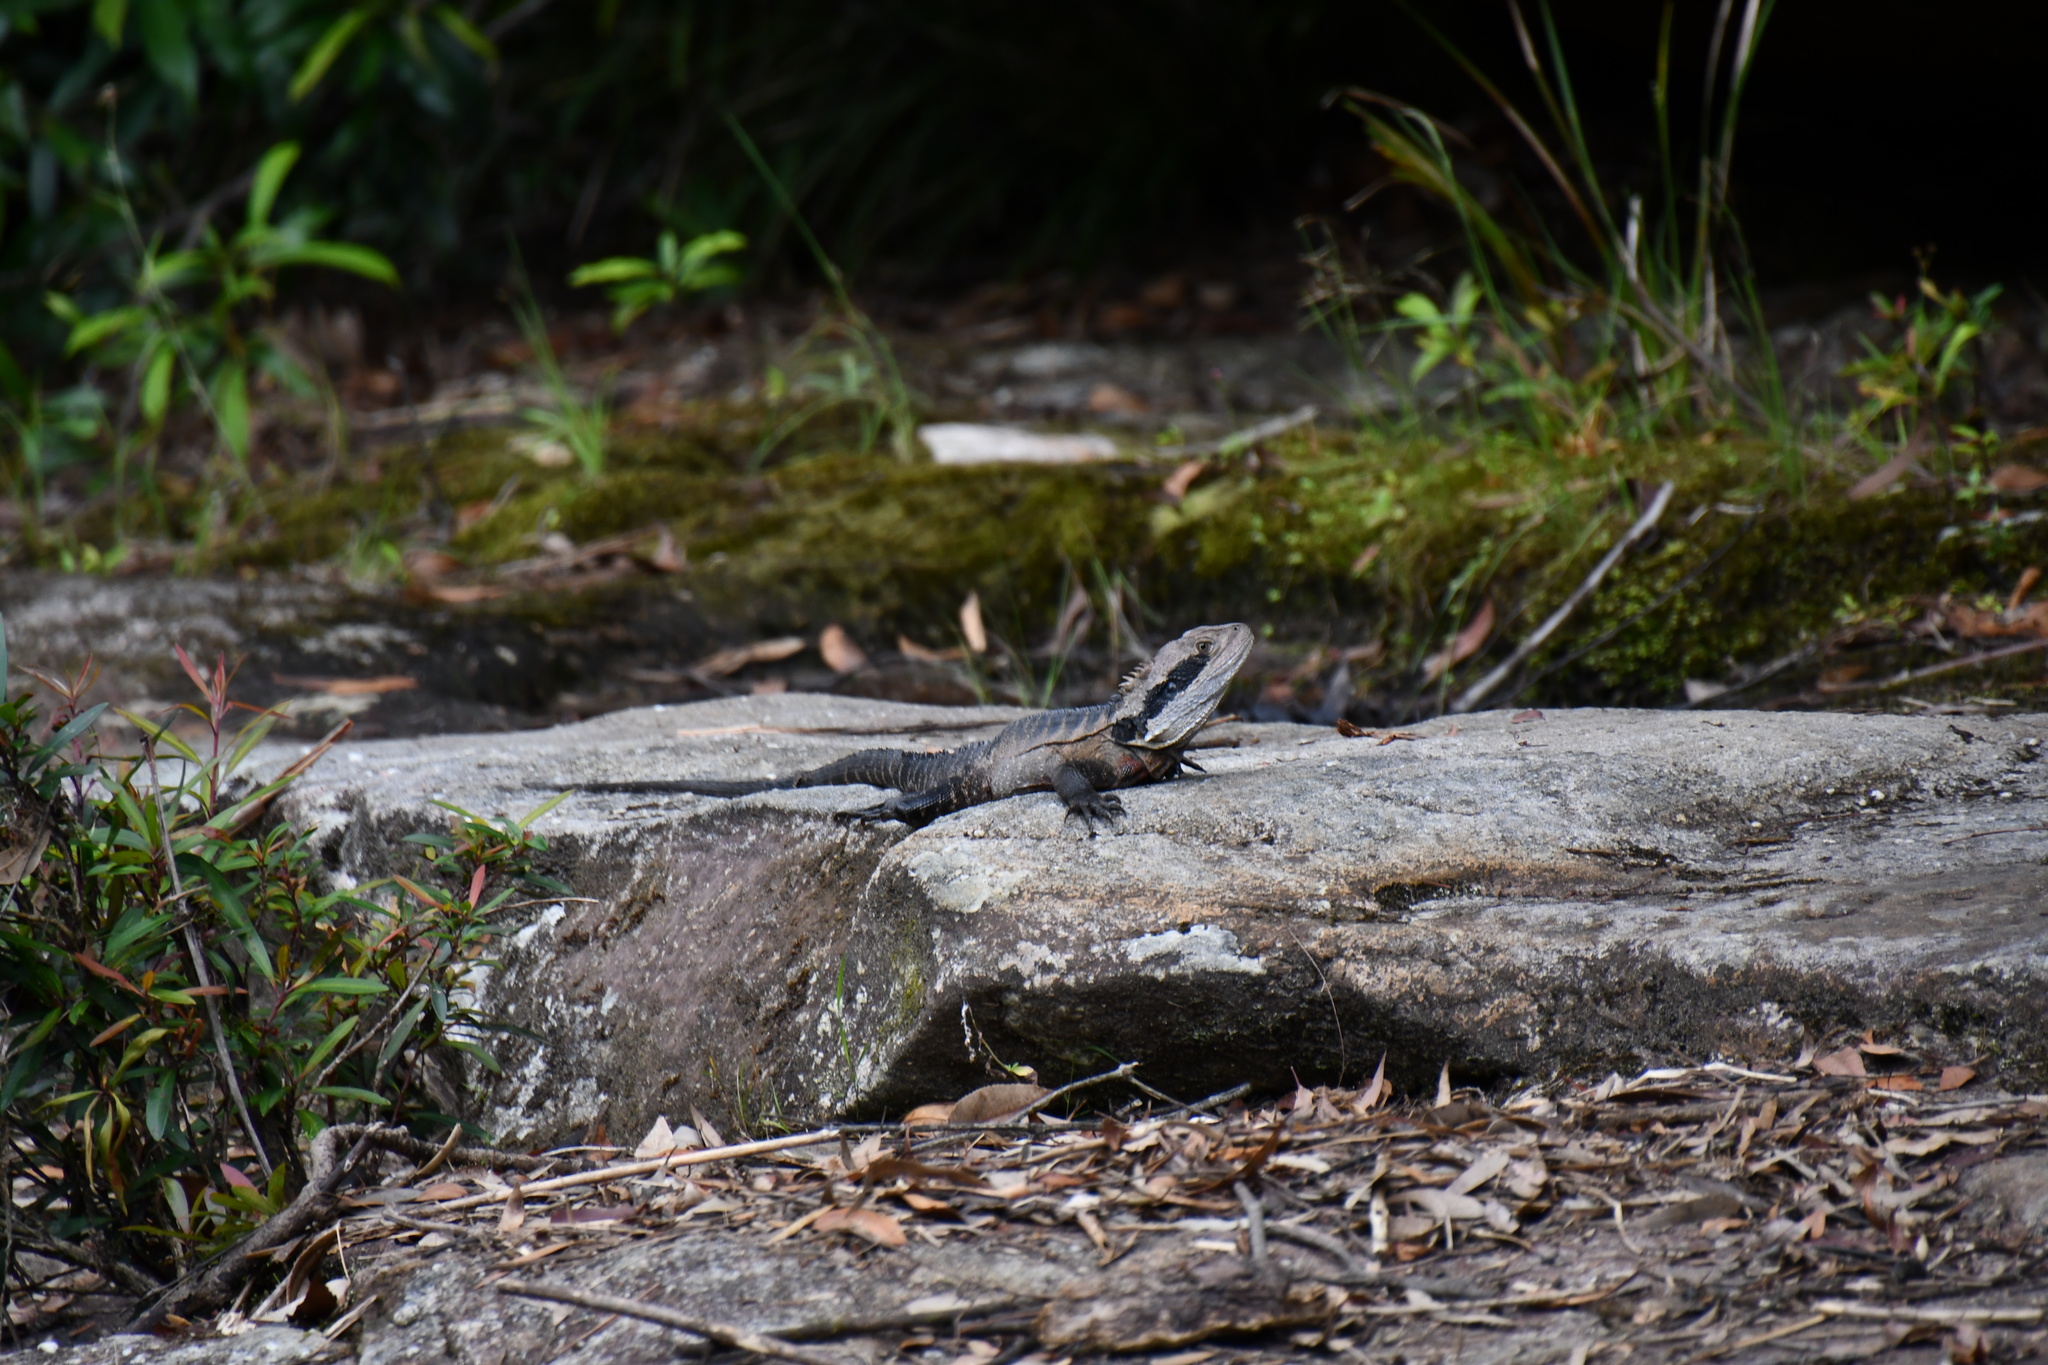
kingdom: Animalia
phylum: Chordata
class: Squamata
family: Agamidae
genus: Intellagama
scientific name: Intellagama lesueurii
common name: Eastern water dragon
